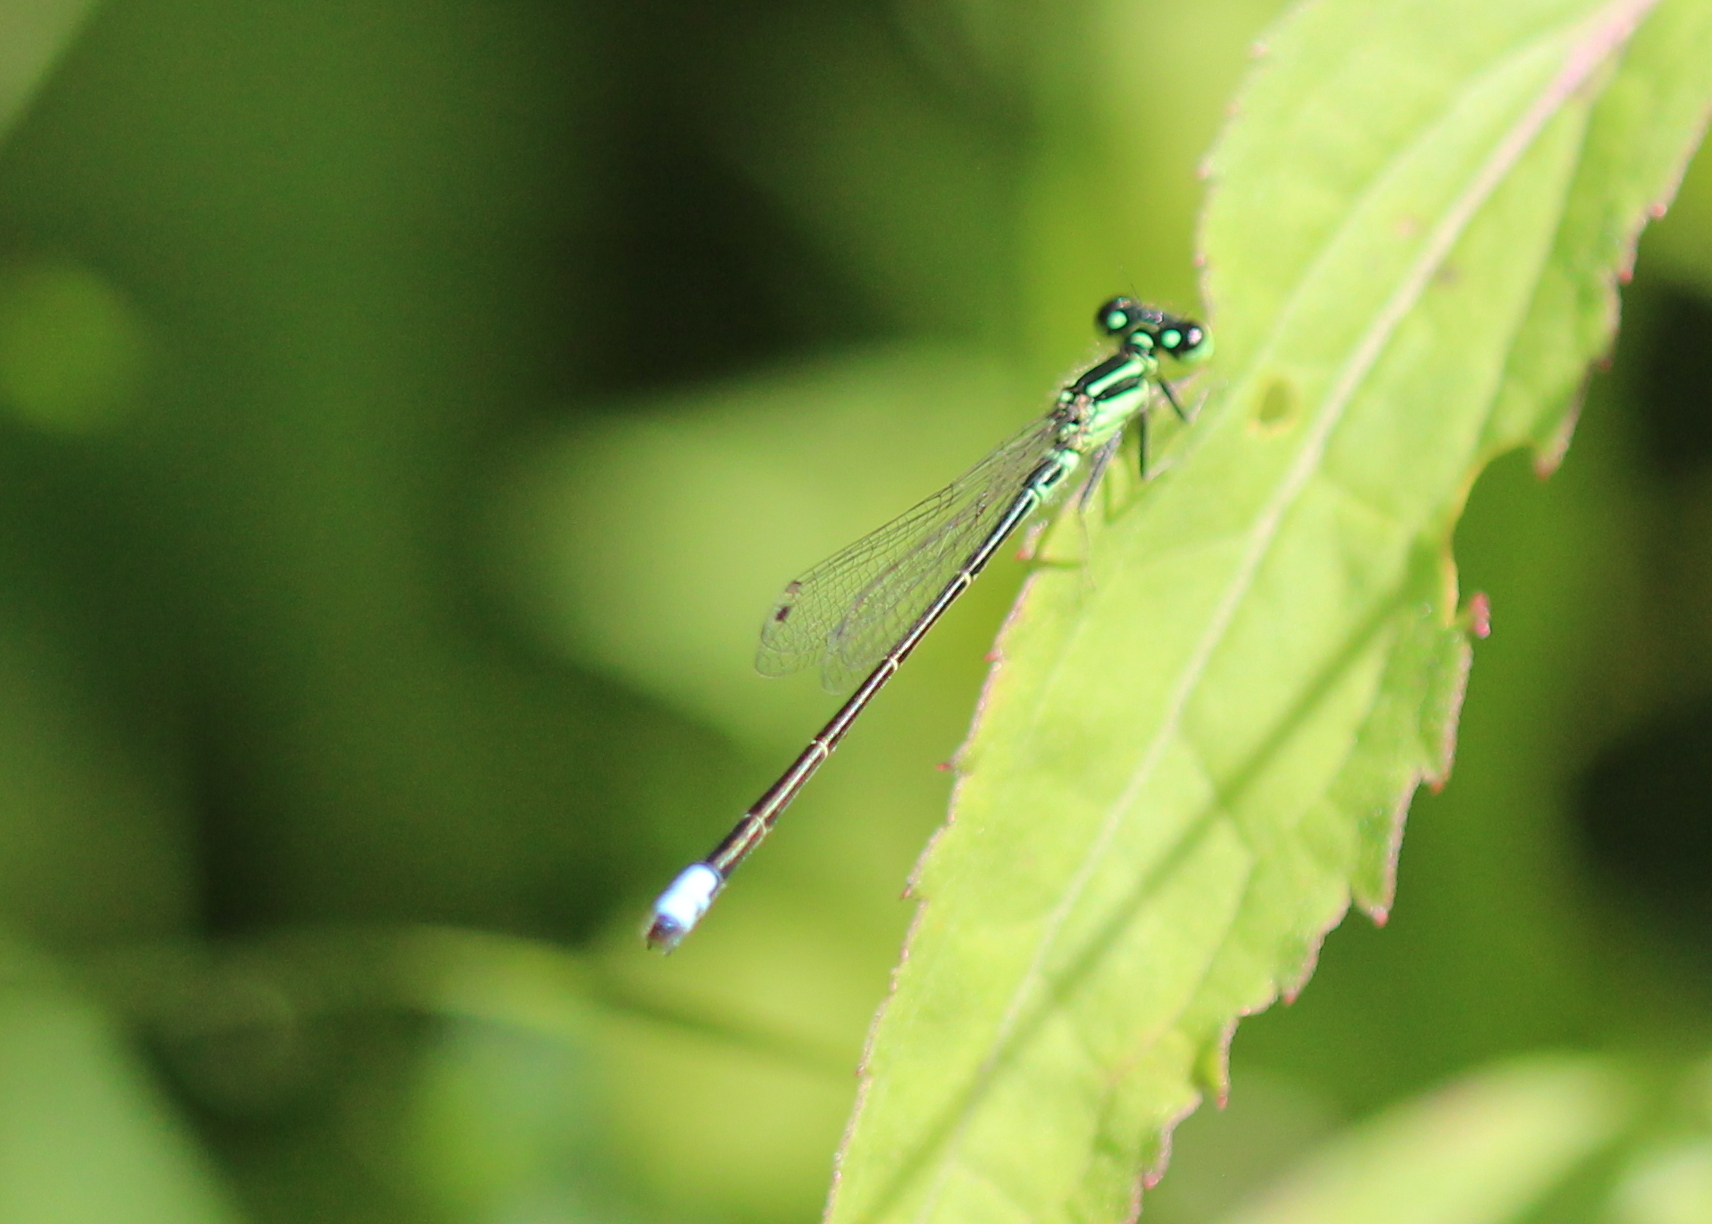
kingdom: Animalia
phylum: Arthropoda
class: Insecta
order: Odonata
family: Coenagrionidae
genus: Ischnura
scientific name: Ischnura verticalis
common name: Eastern forktail
